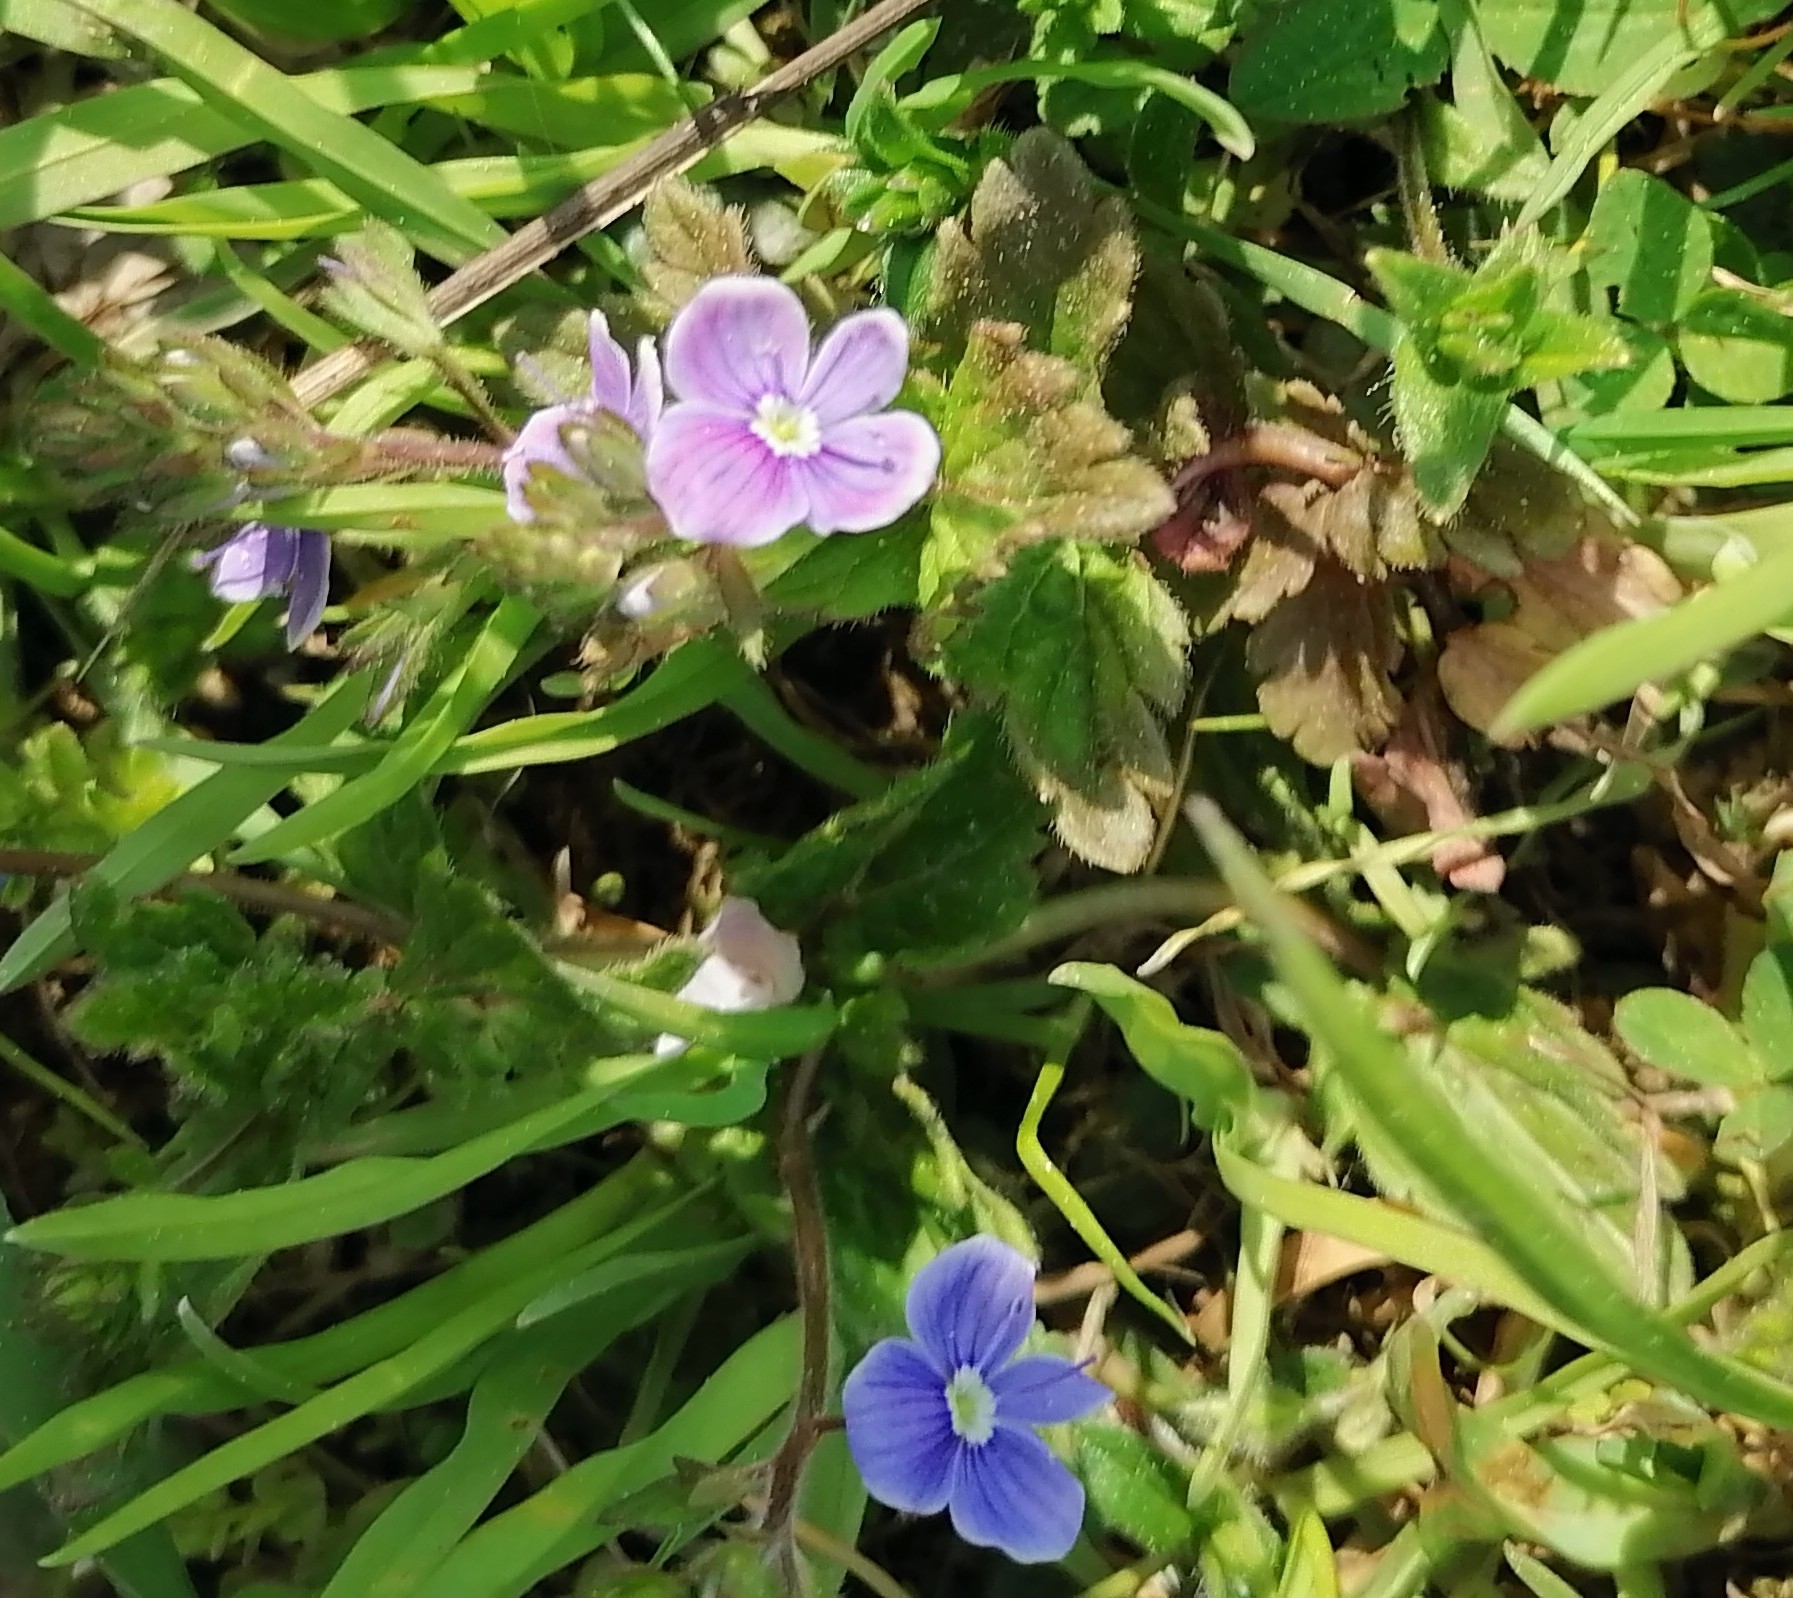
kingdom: Plantae
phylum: Tracheophyta
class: Magnoliopsida
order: Lamiales
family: Plantaginaceae
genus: Veronica
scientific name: Veronica chamaedrys
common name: Germander speedwell
